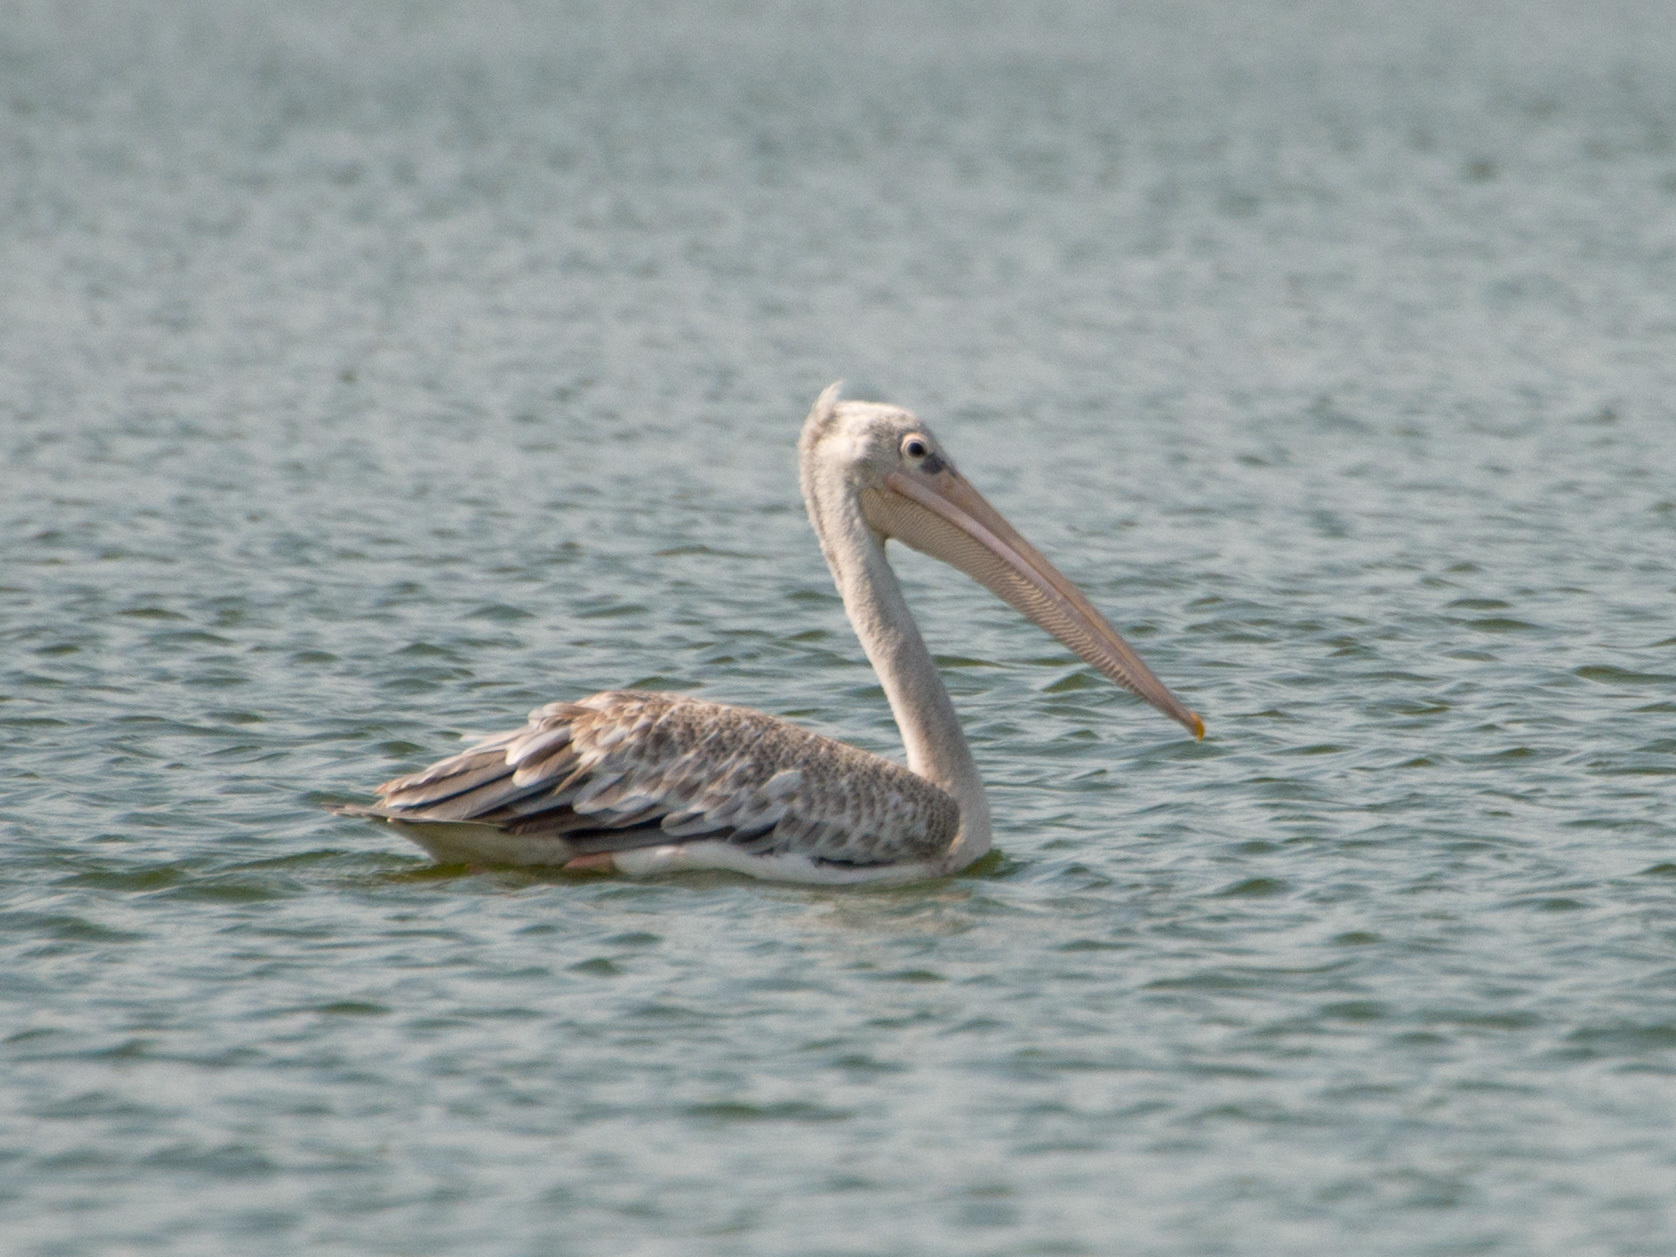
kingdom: Animalia
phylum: Chordata
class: Aves
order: Pelecaniformes
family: Pelecanidae
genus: Pelecanus
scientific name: Pelecanus rufescens
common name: Pink-backed pelican
